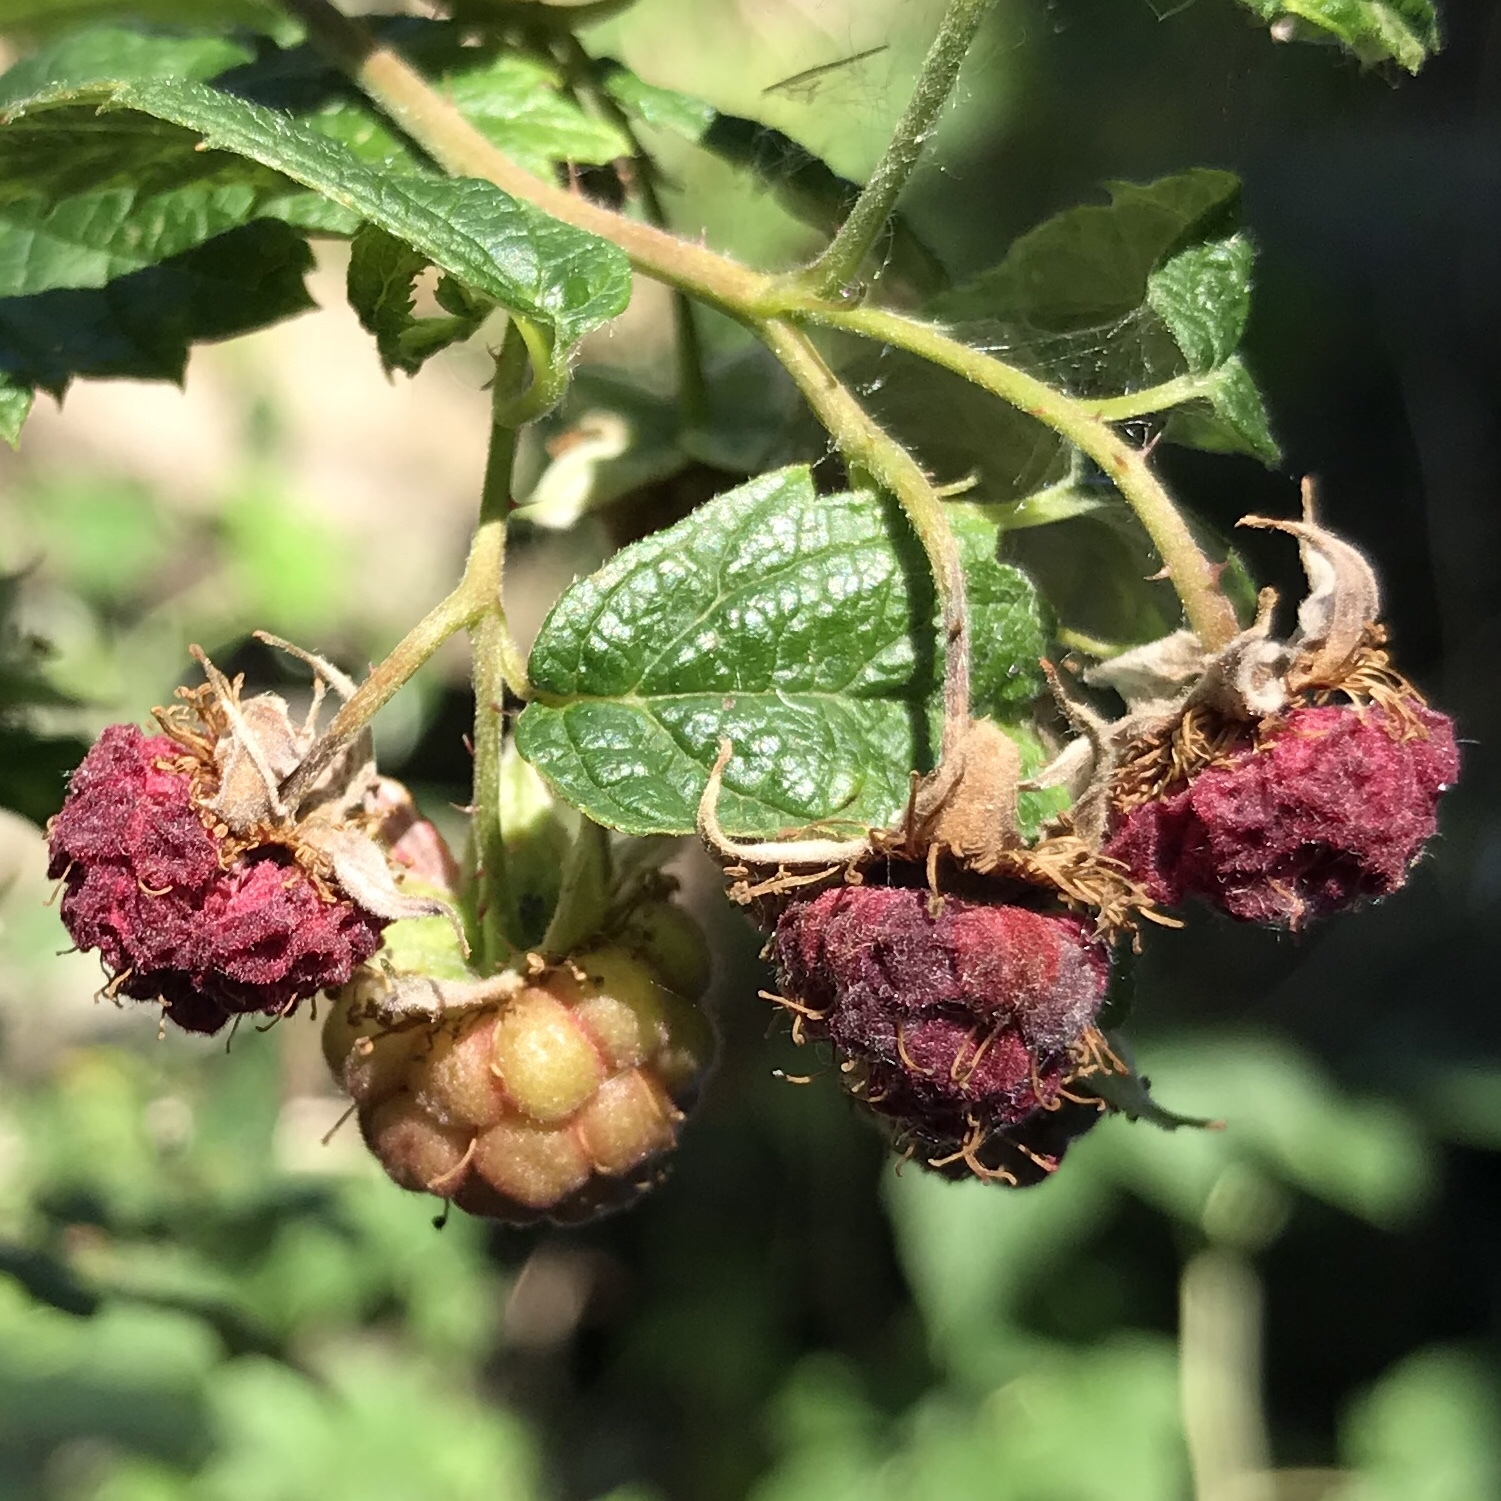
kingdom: Plantae
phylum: Tracheophyta
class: Magnoliopsida
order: Rosales
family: Rosaceae
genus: Rubus
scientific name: Rubus idaeus
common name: Raspberry
